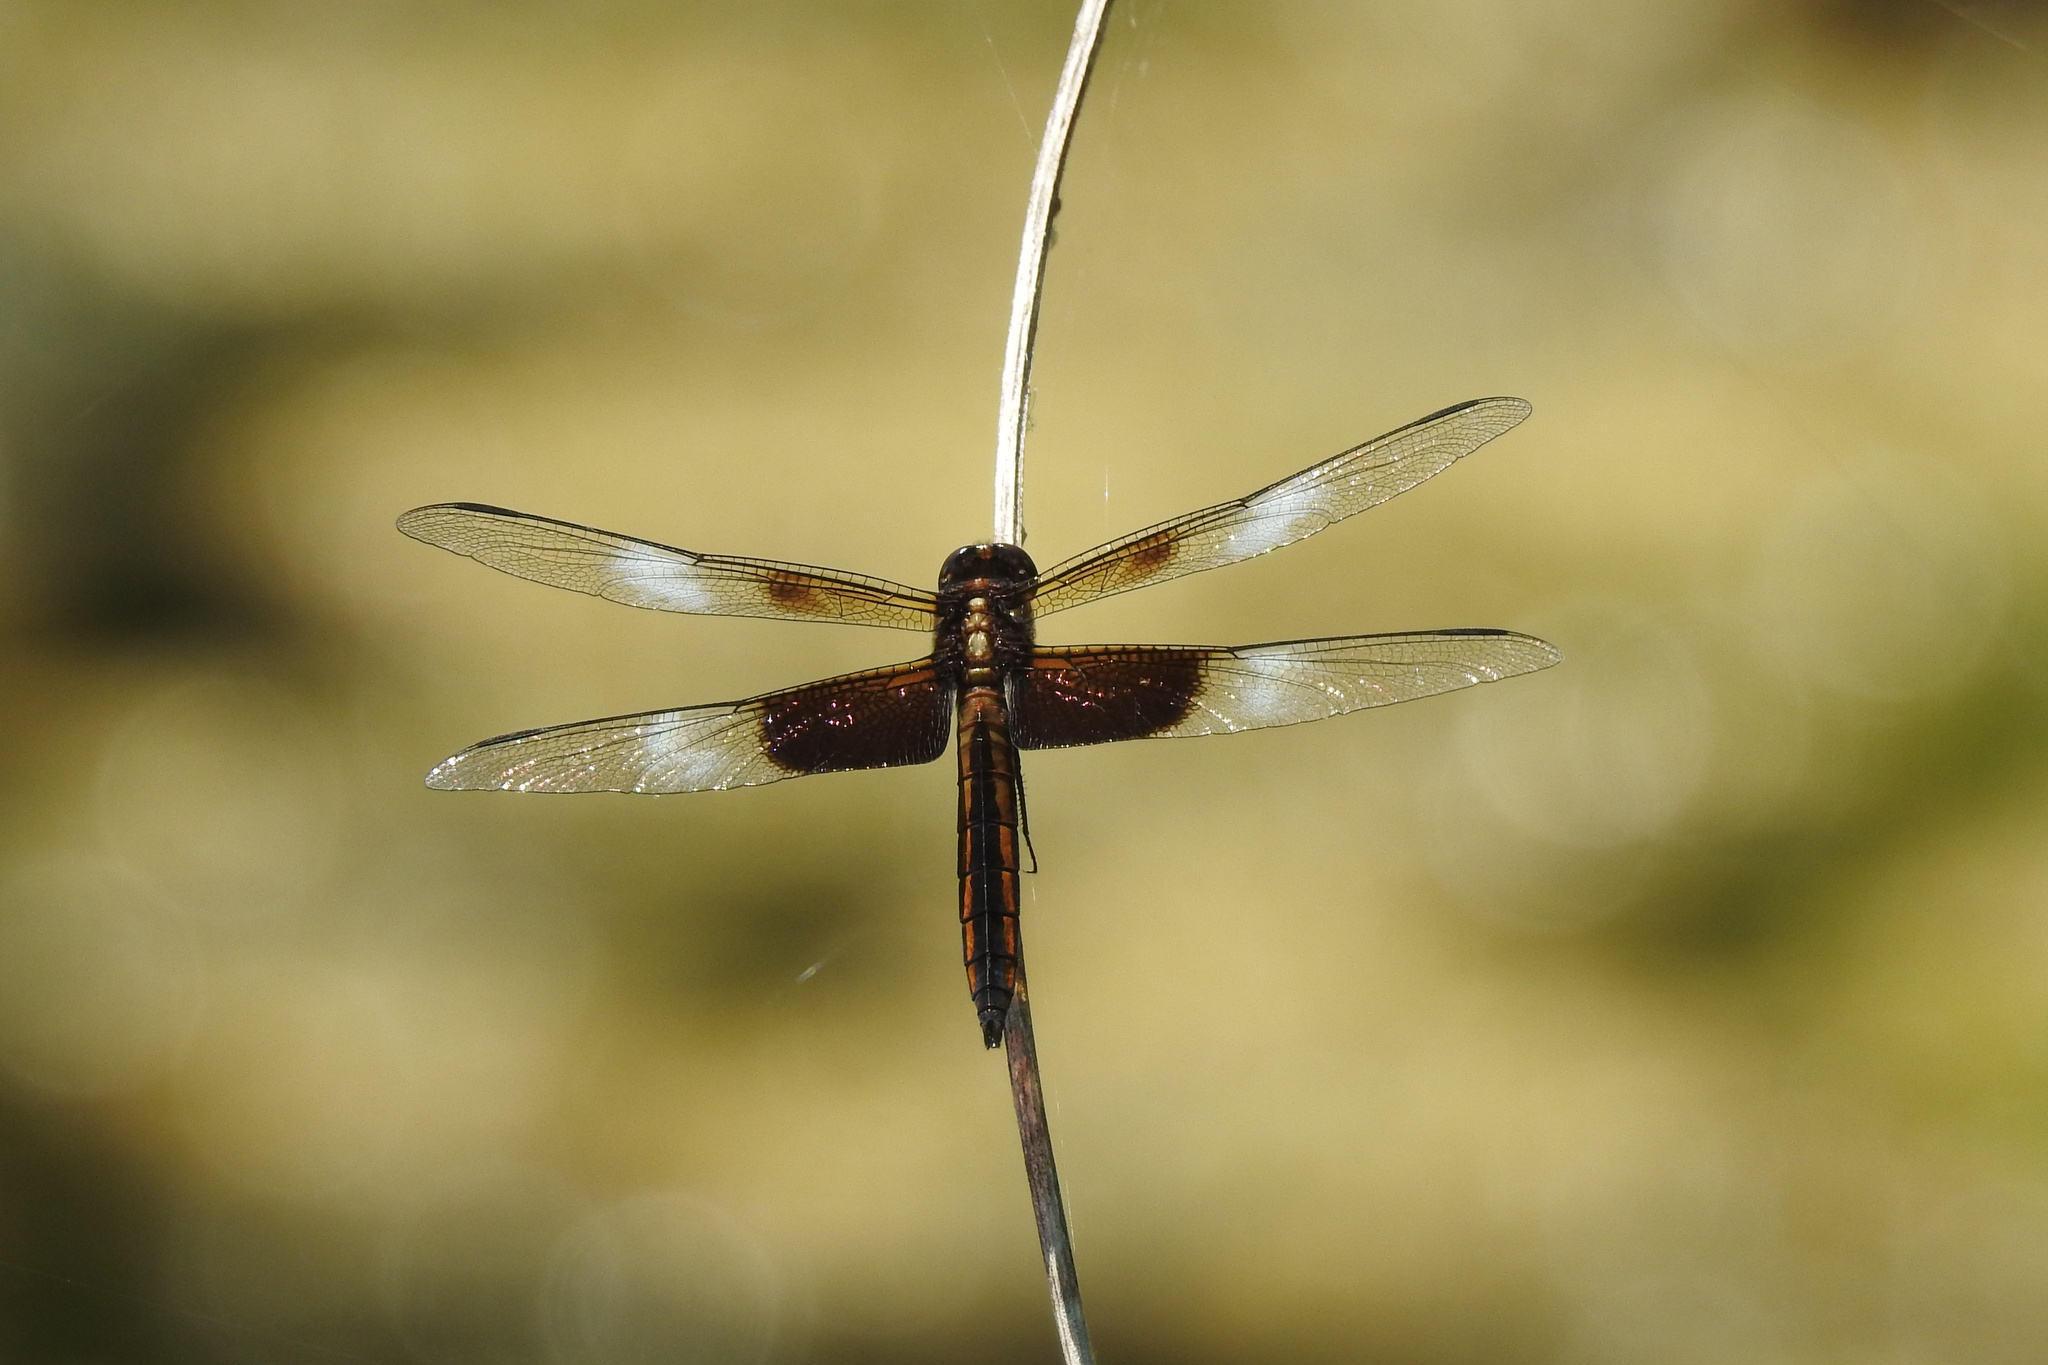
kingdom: Animalia
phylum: Arthropoda
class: Insecta
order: Odonata
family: Libellulidae
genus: Libellula
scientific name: Libellula luctuosa
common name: Widow skimmer
